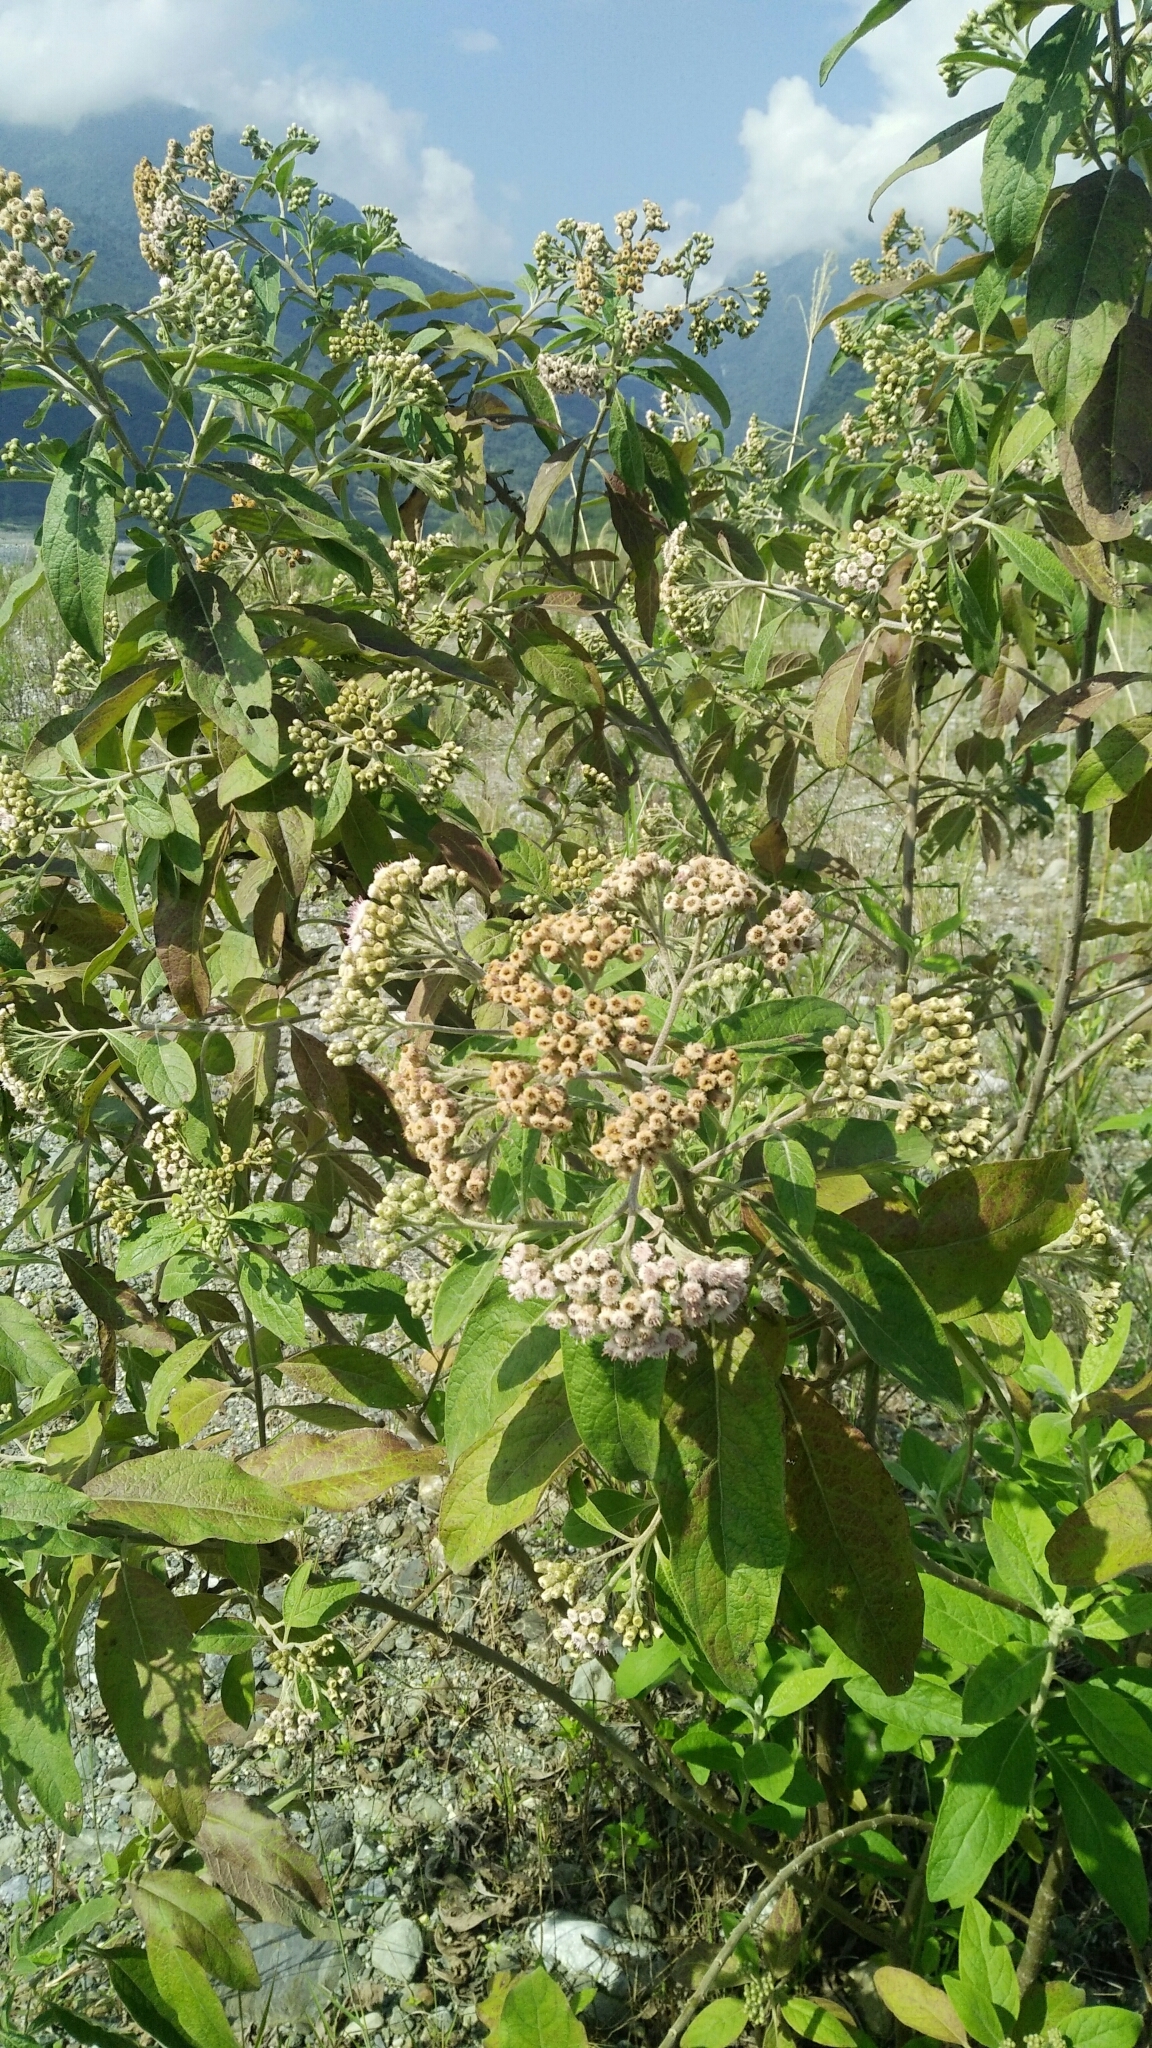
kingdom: Plantae
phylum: Tracheophyta
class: Magnoliopsida
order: Asterales
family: Asteraceae
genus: Pluchea
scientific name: Pluchea carolinensis
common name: Marsh fleabane
